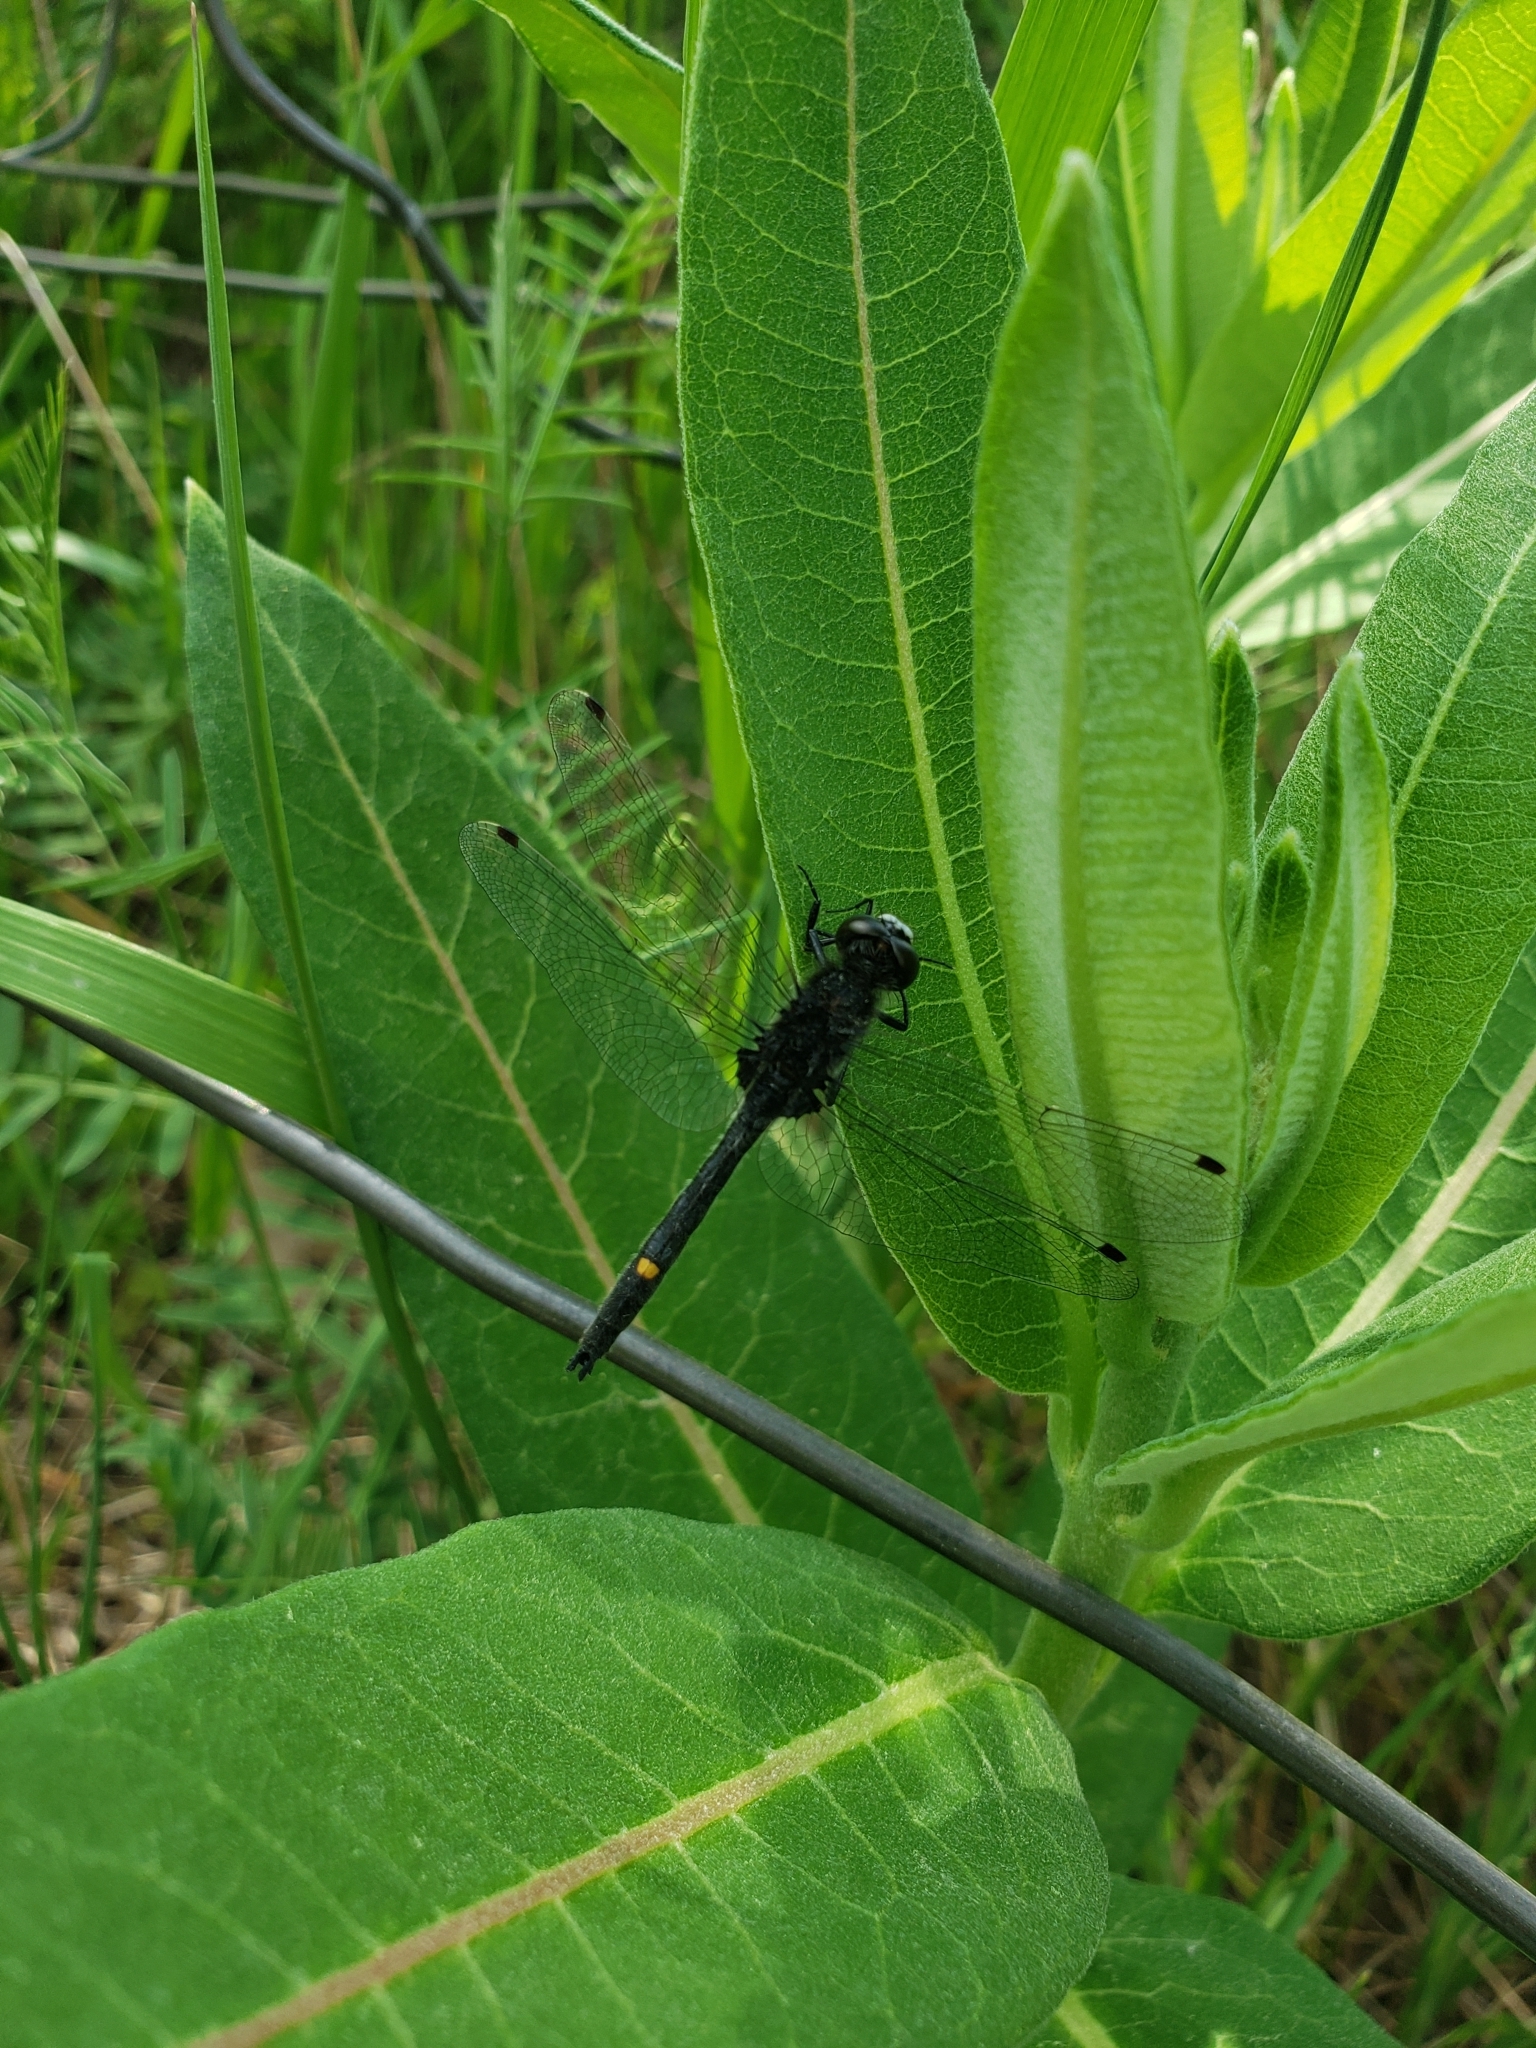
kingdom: Animalia
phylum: Arthropoda
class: Insecta
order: Odonata
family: Libellulidae
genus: Leucorrhinia
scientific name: Leucorrhinia intacta
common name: Dot-tailed whiteface
